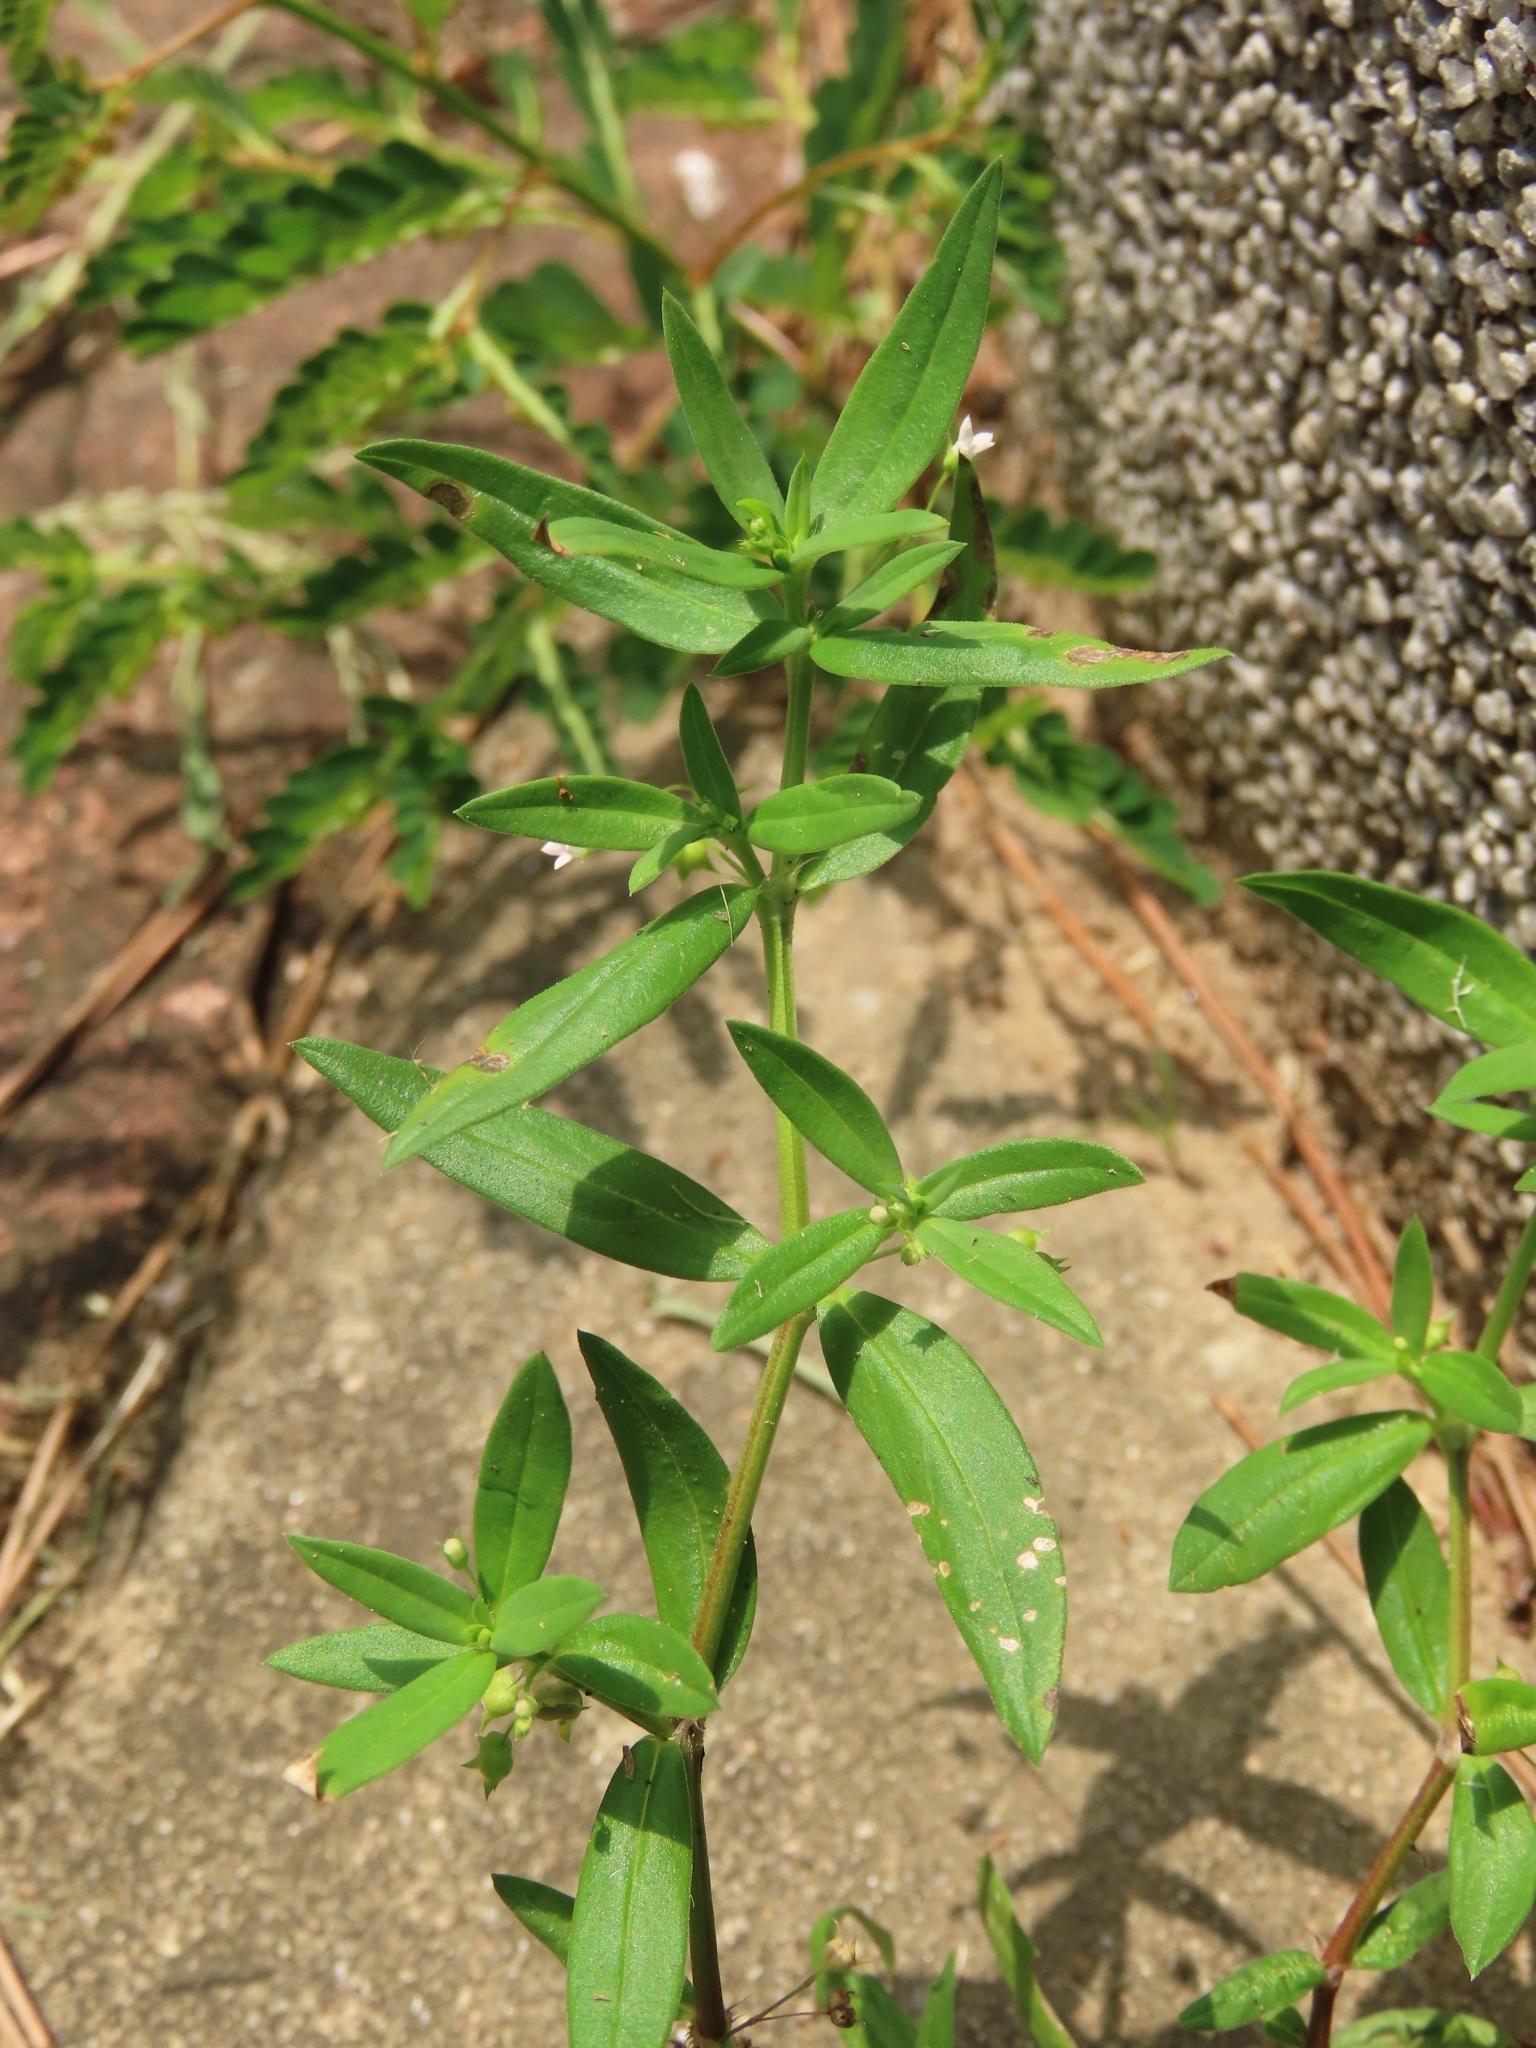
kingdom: Plantae
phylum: Tracheophyta
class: Magnoliopsida
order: Gentianales
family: Rubiaceae
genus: Oldenlandia
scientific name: Oldenlandia corymbosa
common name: Flat-top mille graines
